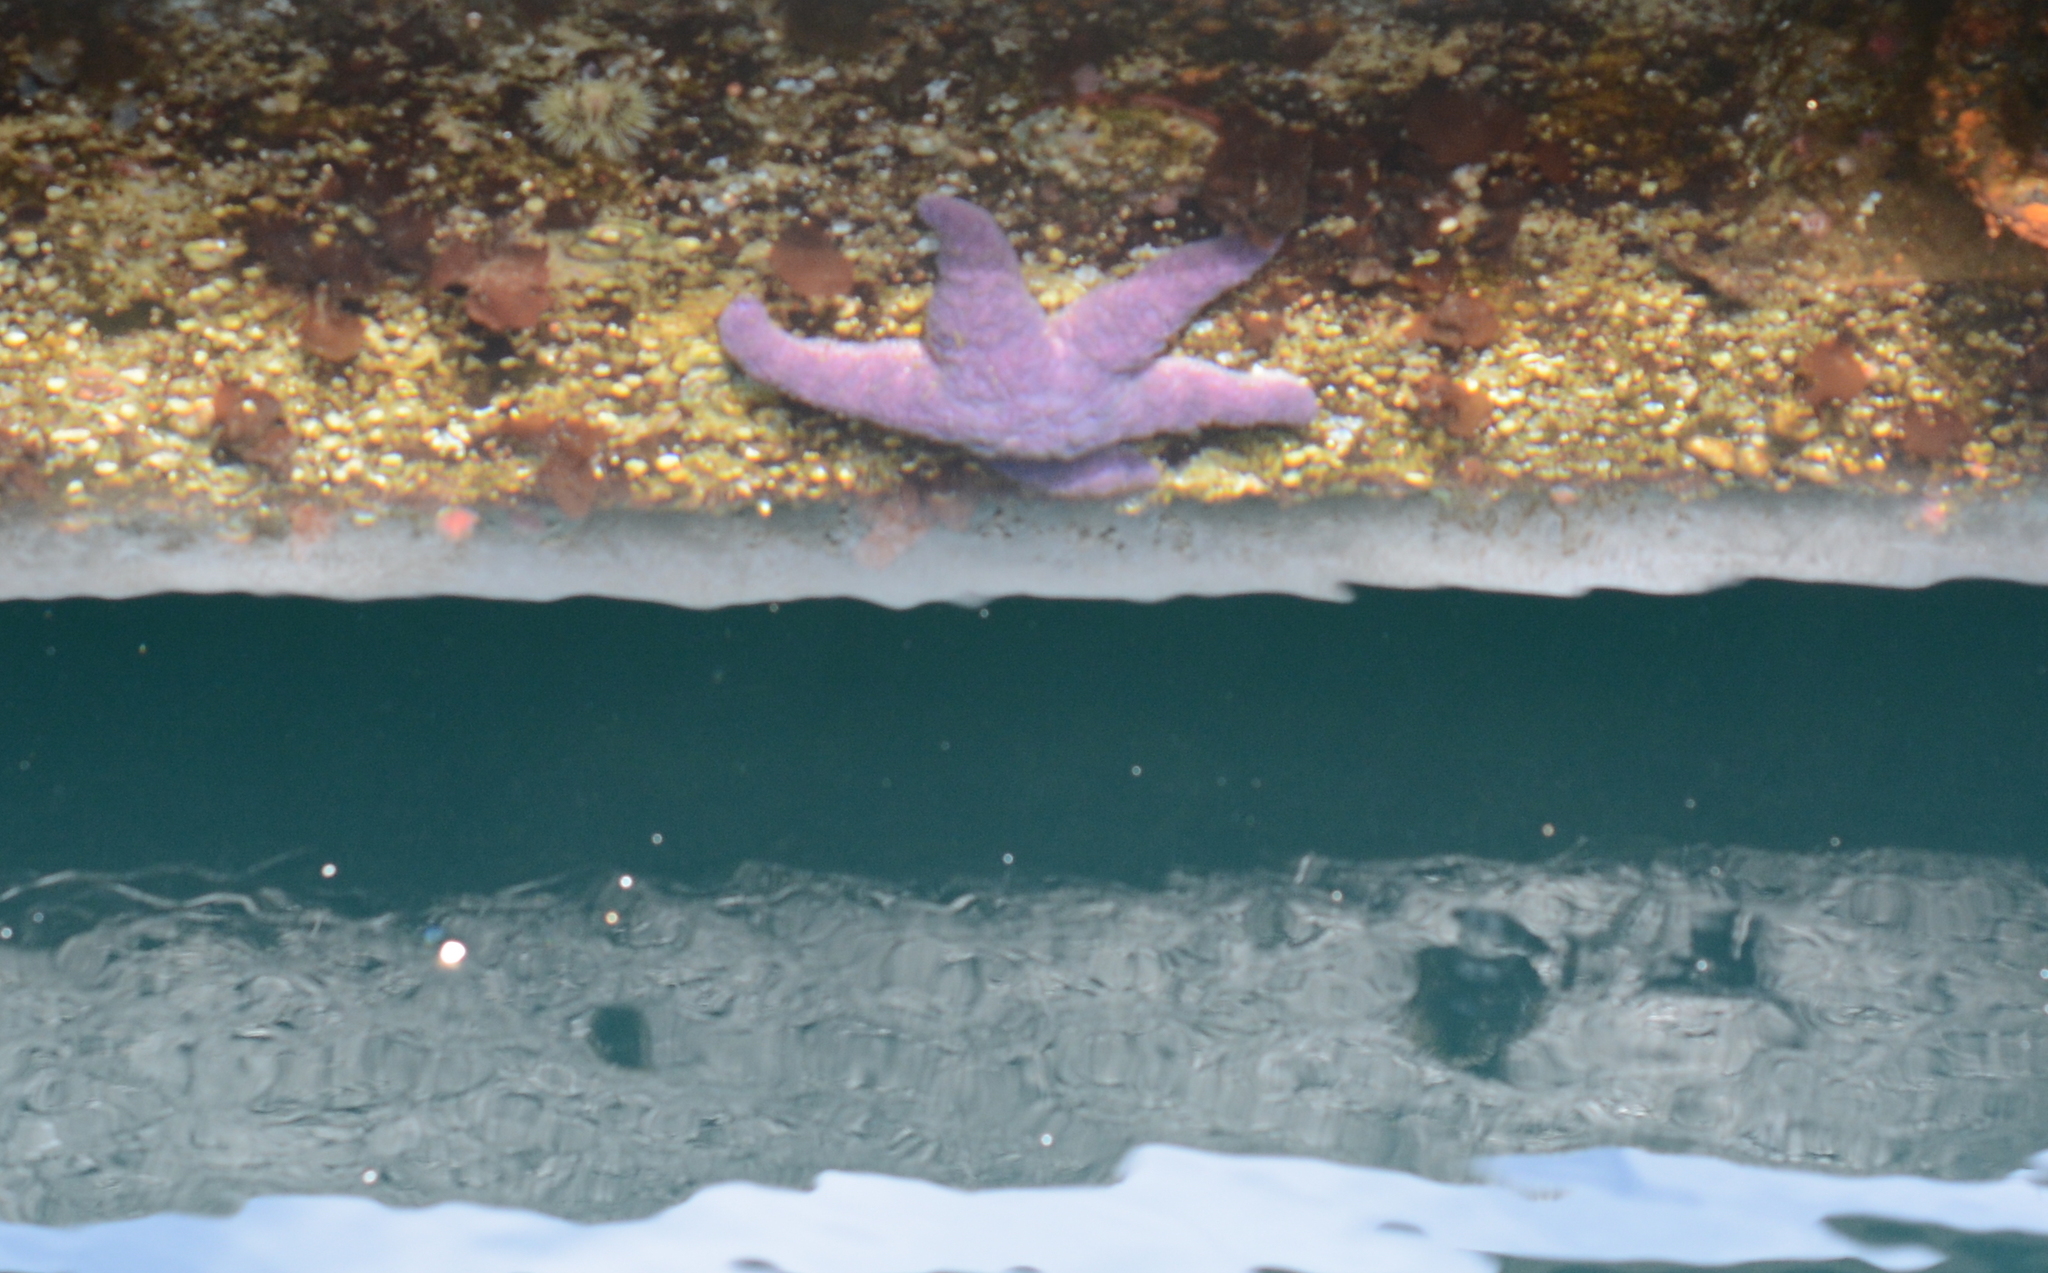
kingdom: Animalia
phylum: Echinodermata
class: Asteroidea
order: Forcipulatida
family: Asteriidae
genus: Pisaster
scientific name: Pisaster ochraceus
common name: Ochre stars
